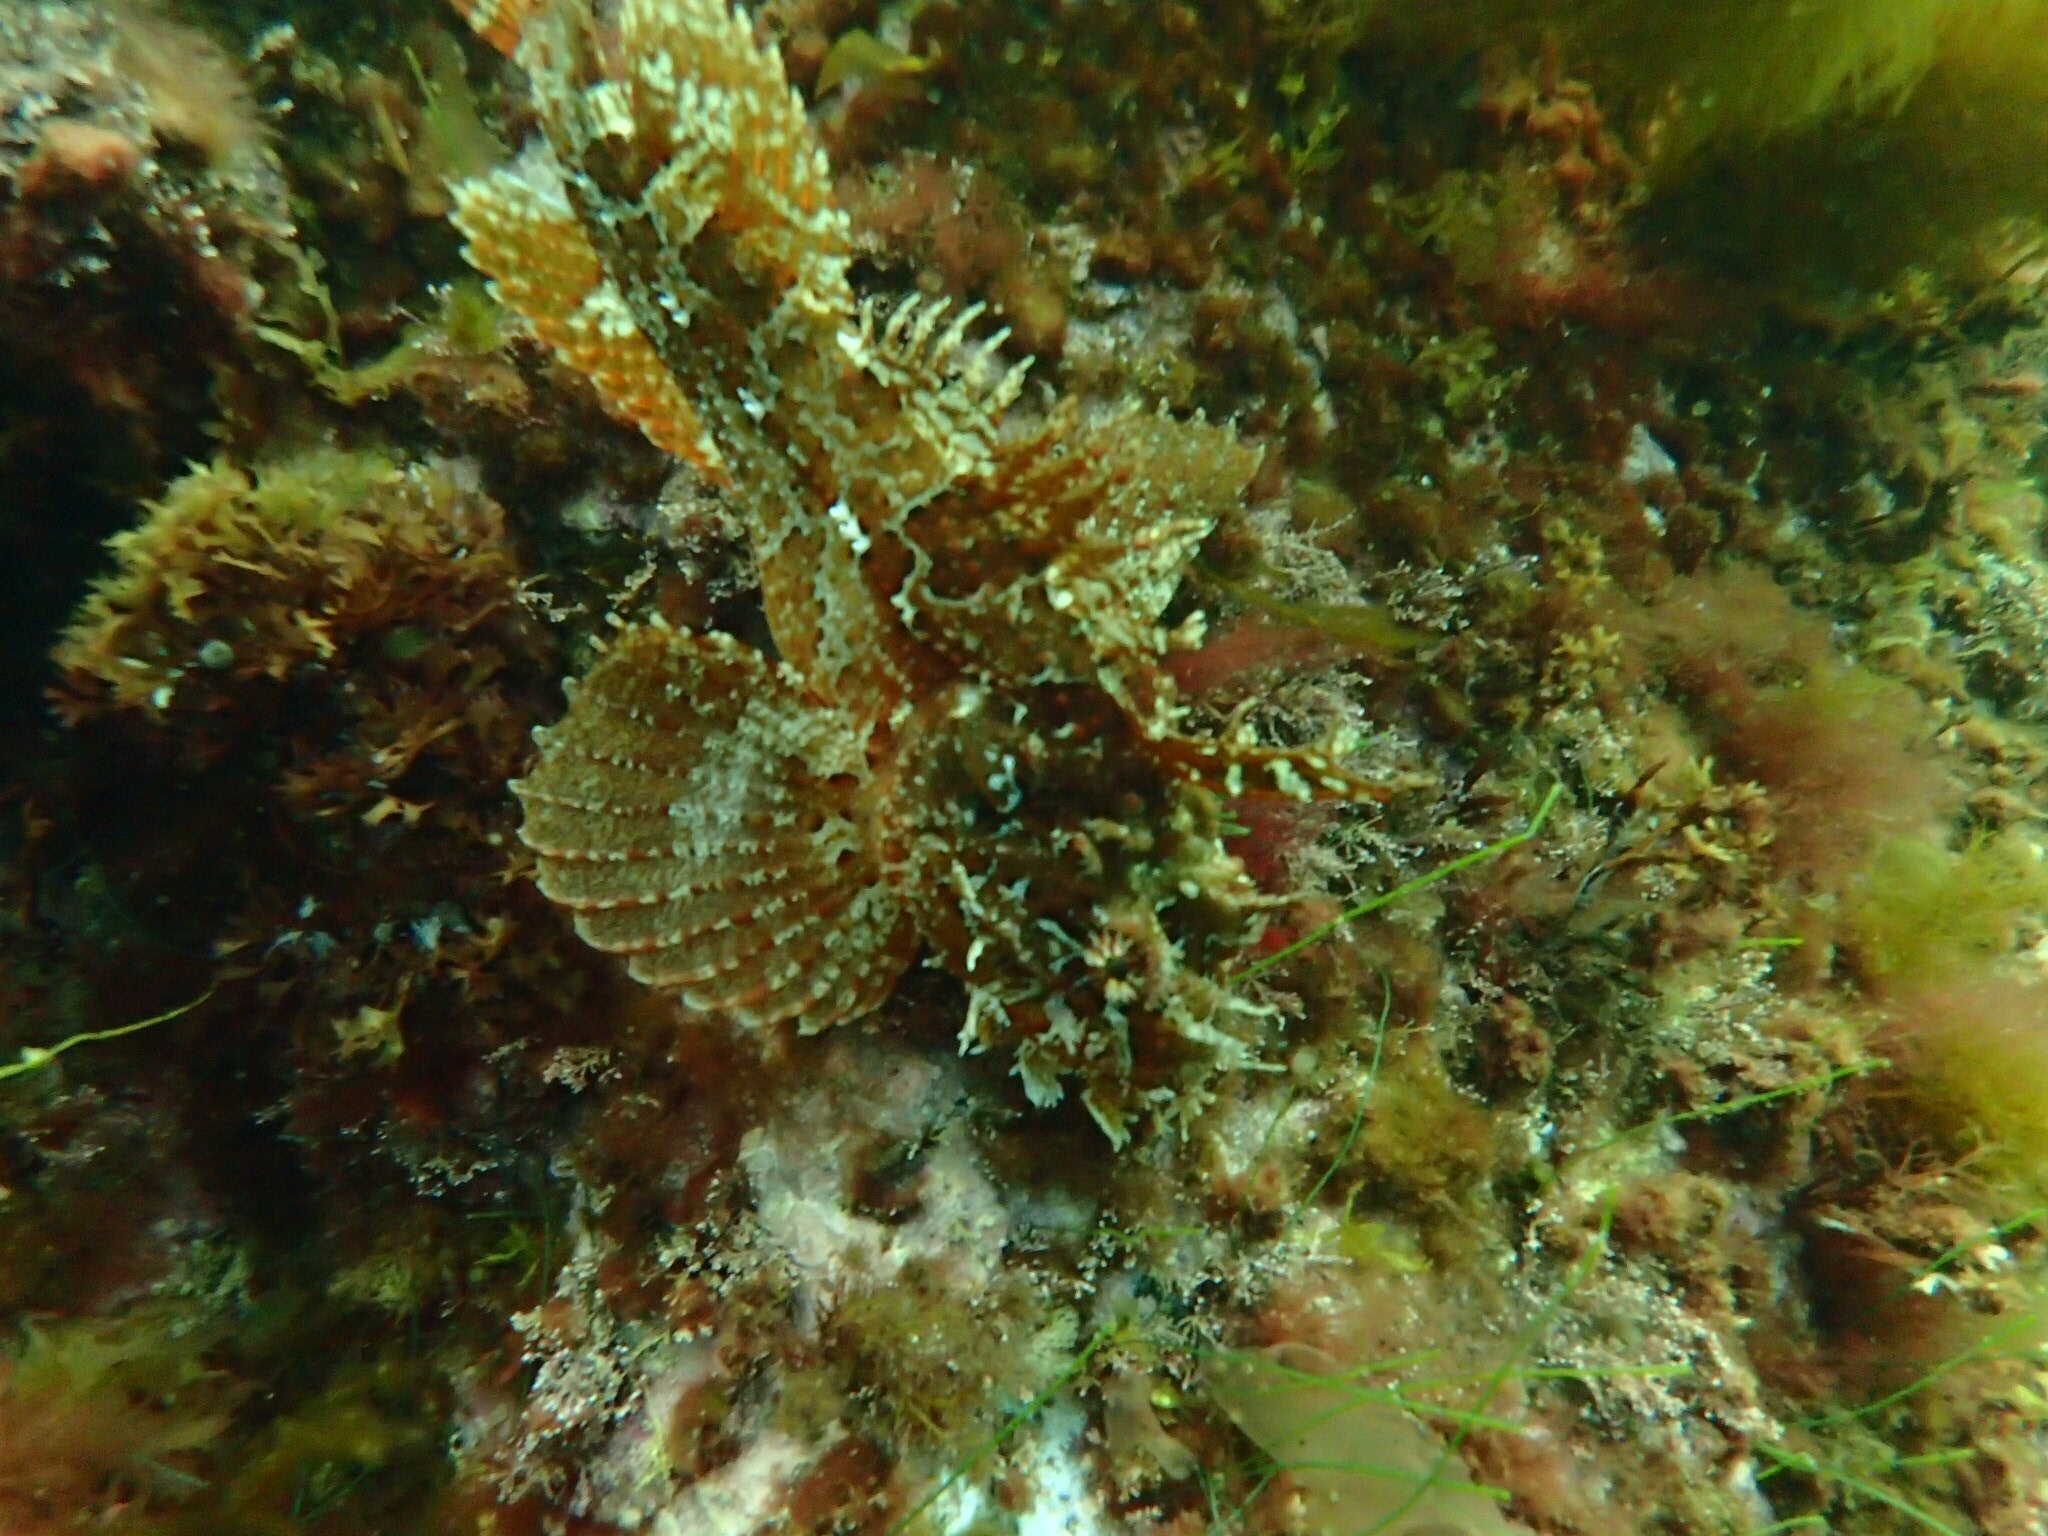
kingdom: Animalia
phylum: Chordata
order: Scorpaeniformes
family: Hemitripteridae
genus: Hemitripterus
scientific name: Hemitripterus americanus
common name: Sea raven
